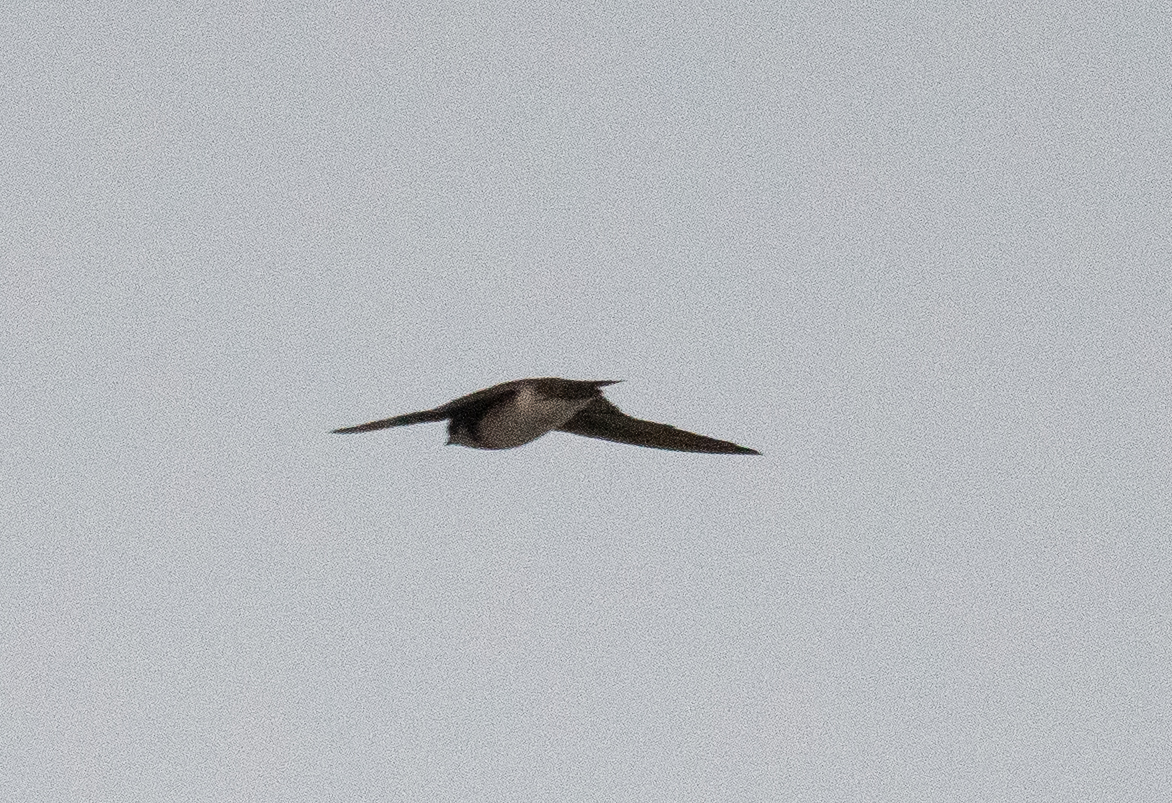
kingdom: Animalia
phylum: Chordata
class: Aves
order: Passeriformes
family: Hirundinidae
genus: Riparia
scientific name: Riparia riparia
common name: Sand martin
